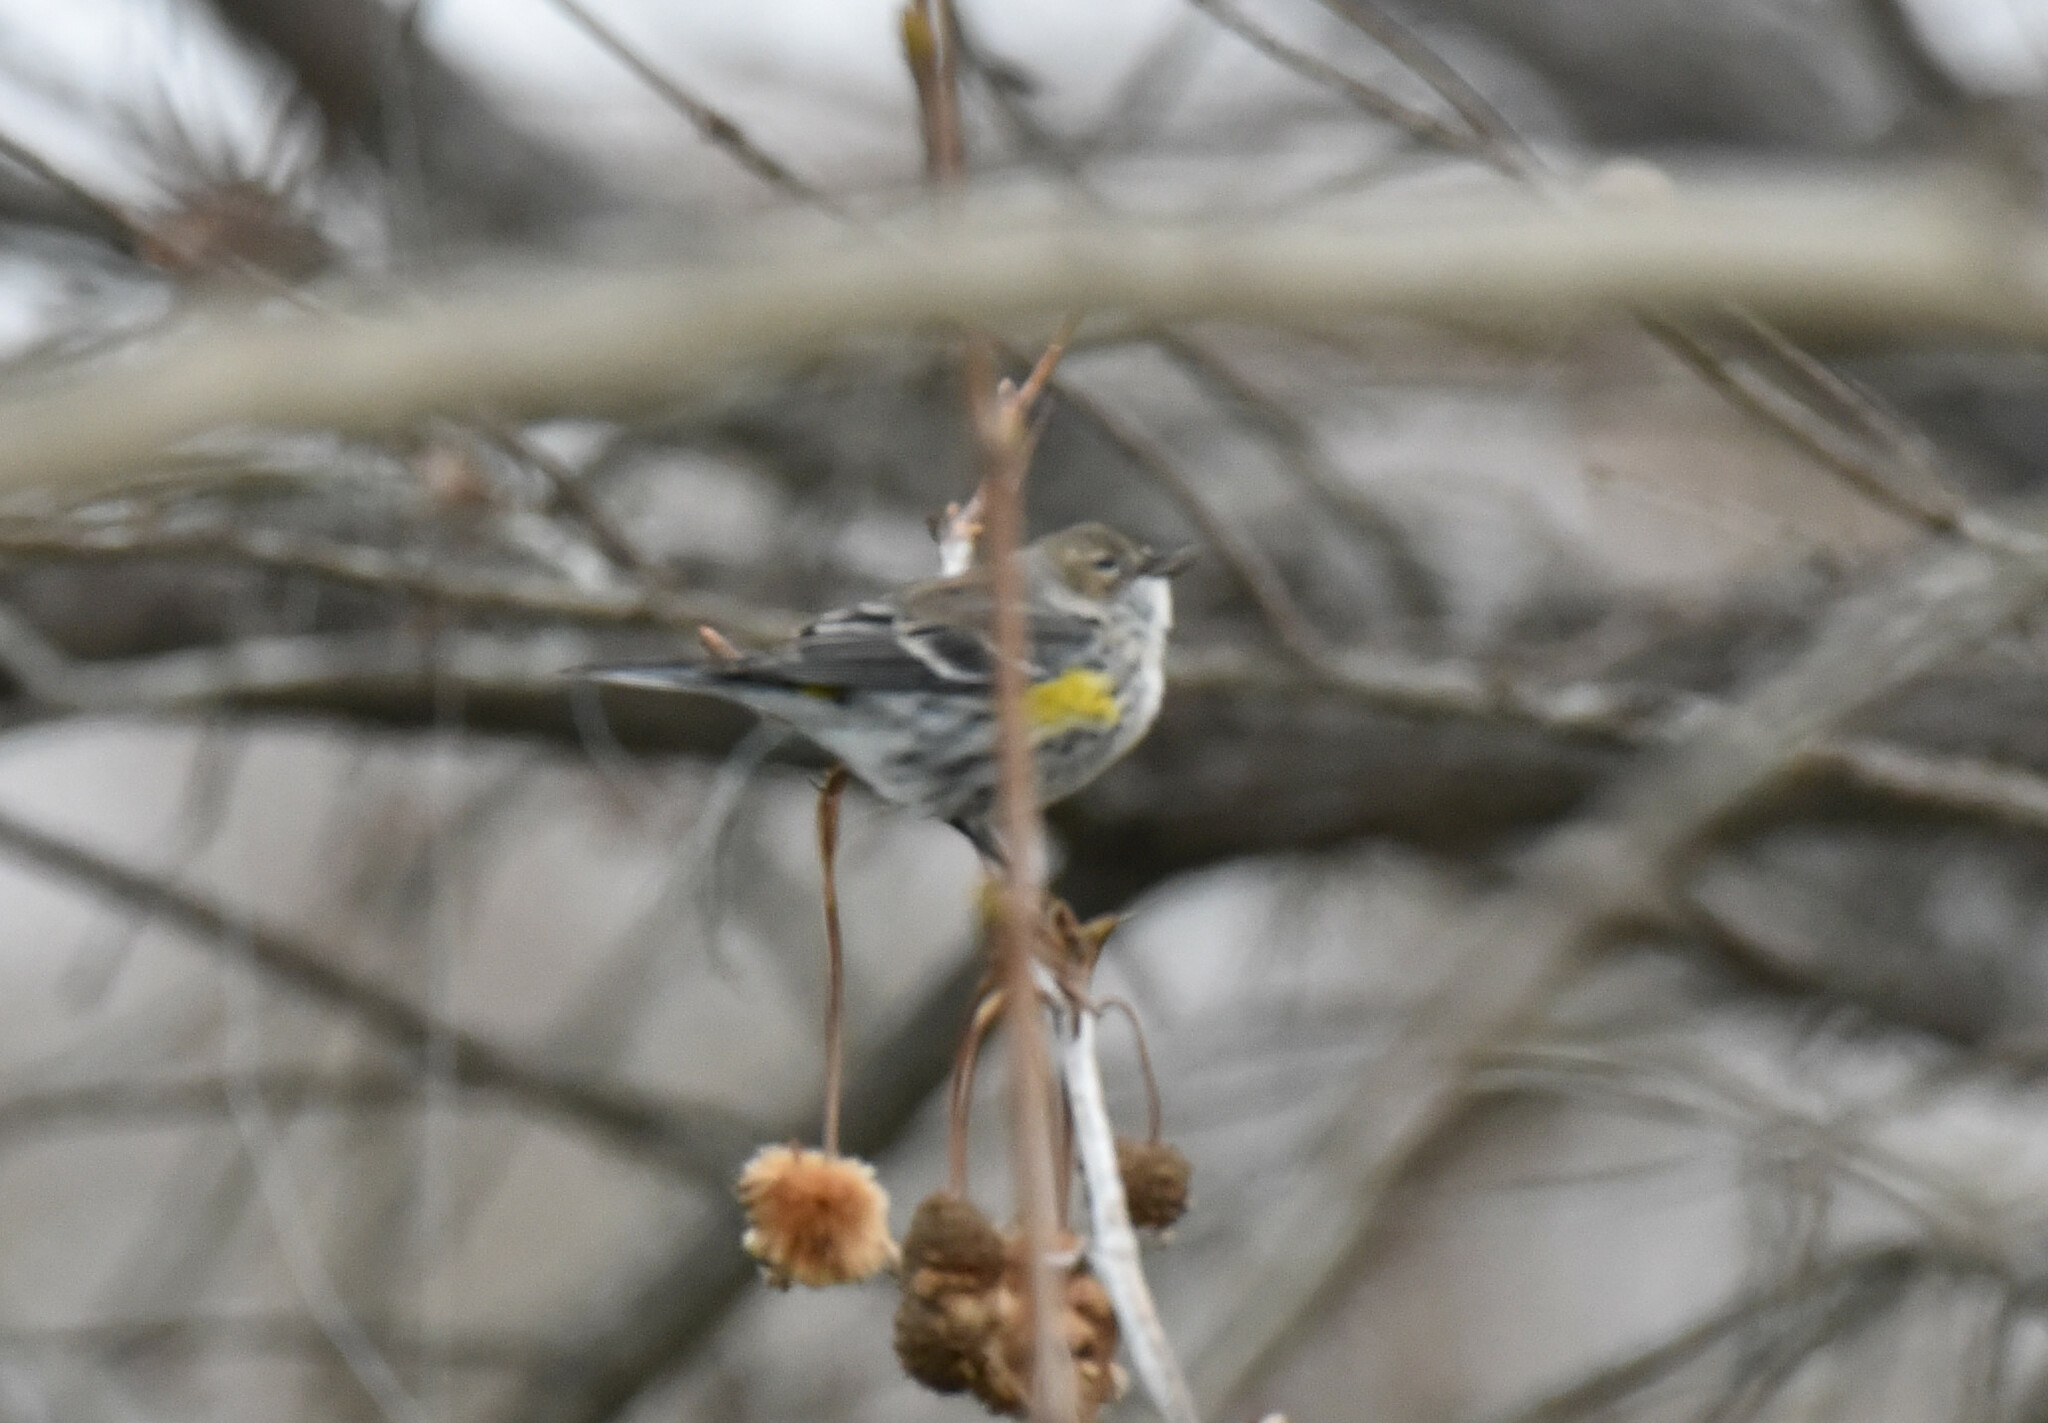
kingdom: Animalia
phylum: Chordata
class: Aves
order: Passeriformes
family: Parulidae
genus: Setophaga
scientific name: Setophaga coronata
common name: Myrtle warbler
